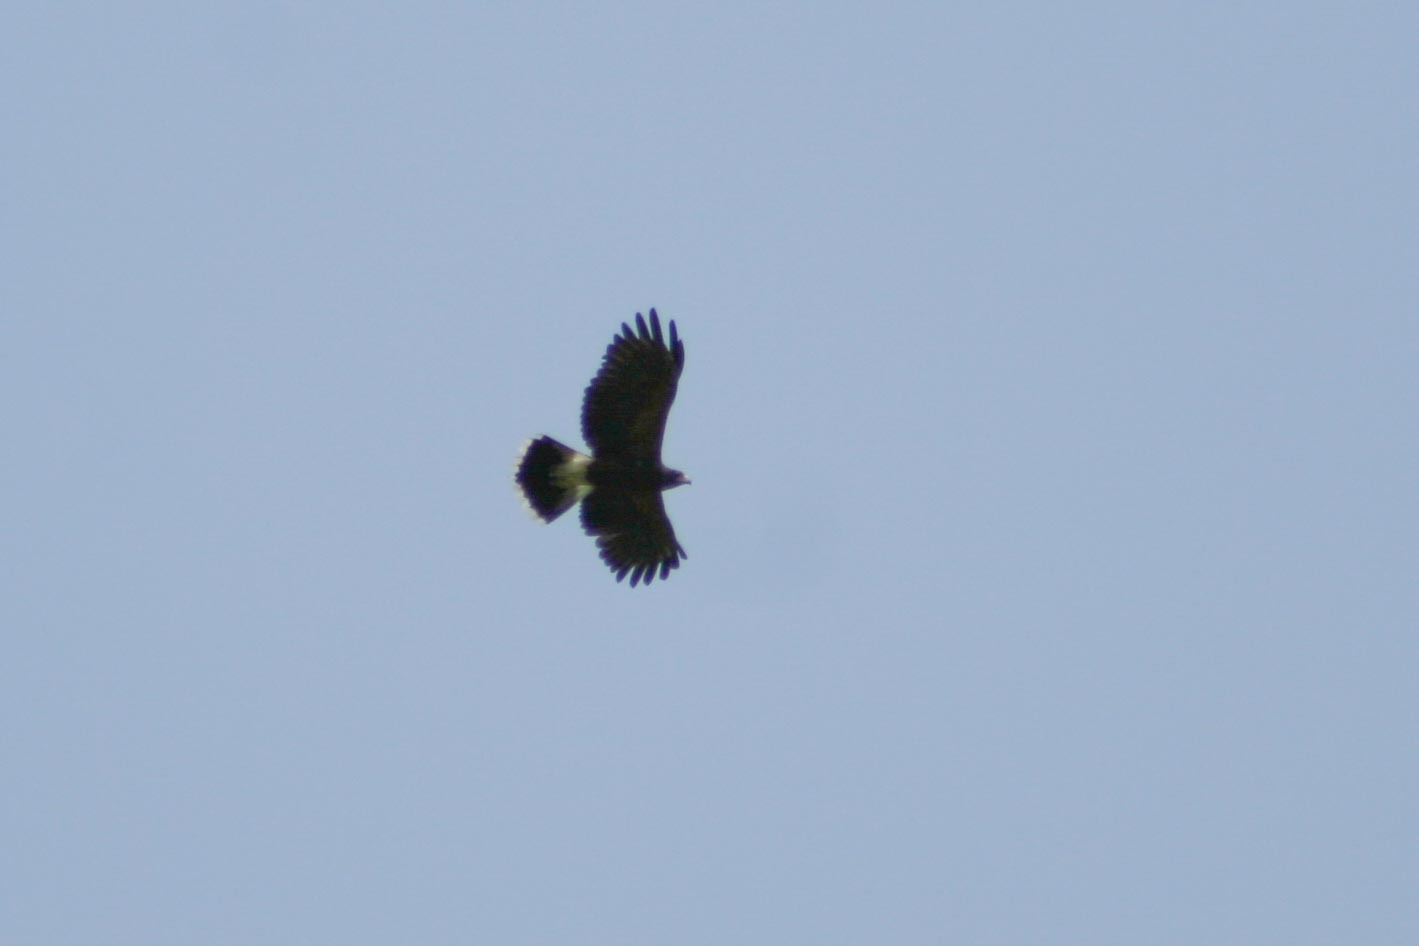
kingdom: Animalia
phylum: Chordata
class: Aves
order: Accipitriformes
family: Accipitridae
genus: Parabuteo
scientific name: Parabuteo unicinctus
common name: Harris's hawk
